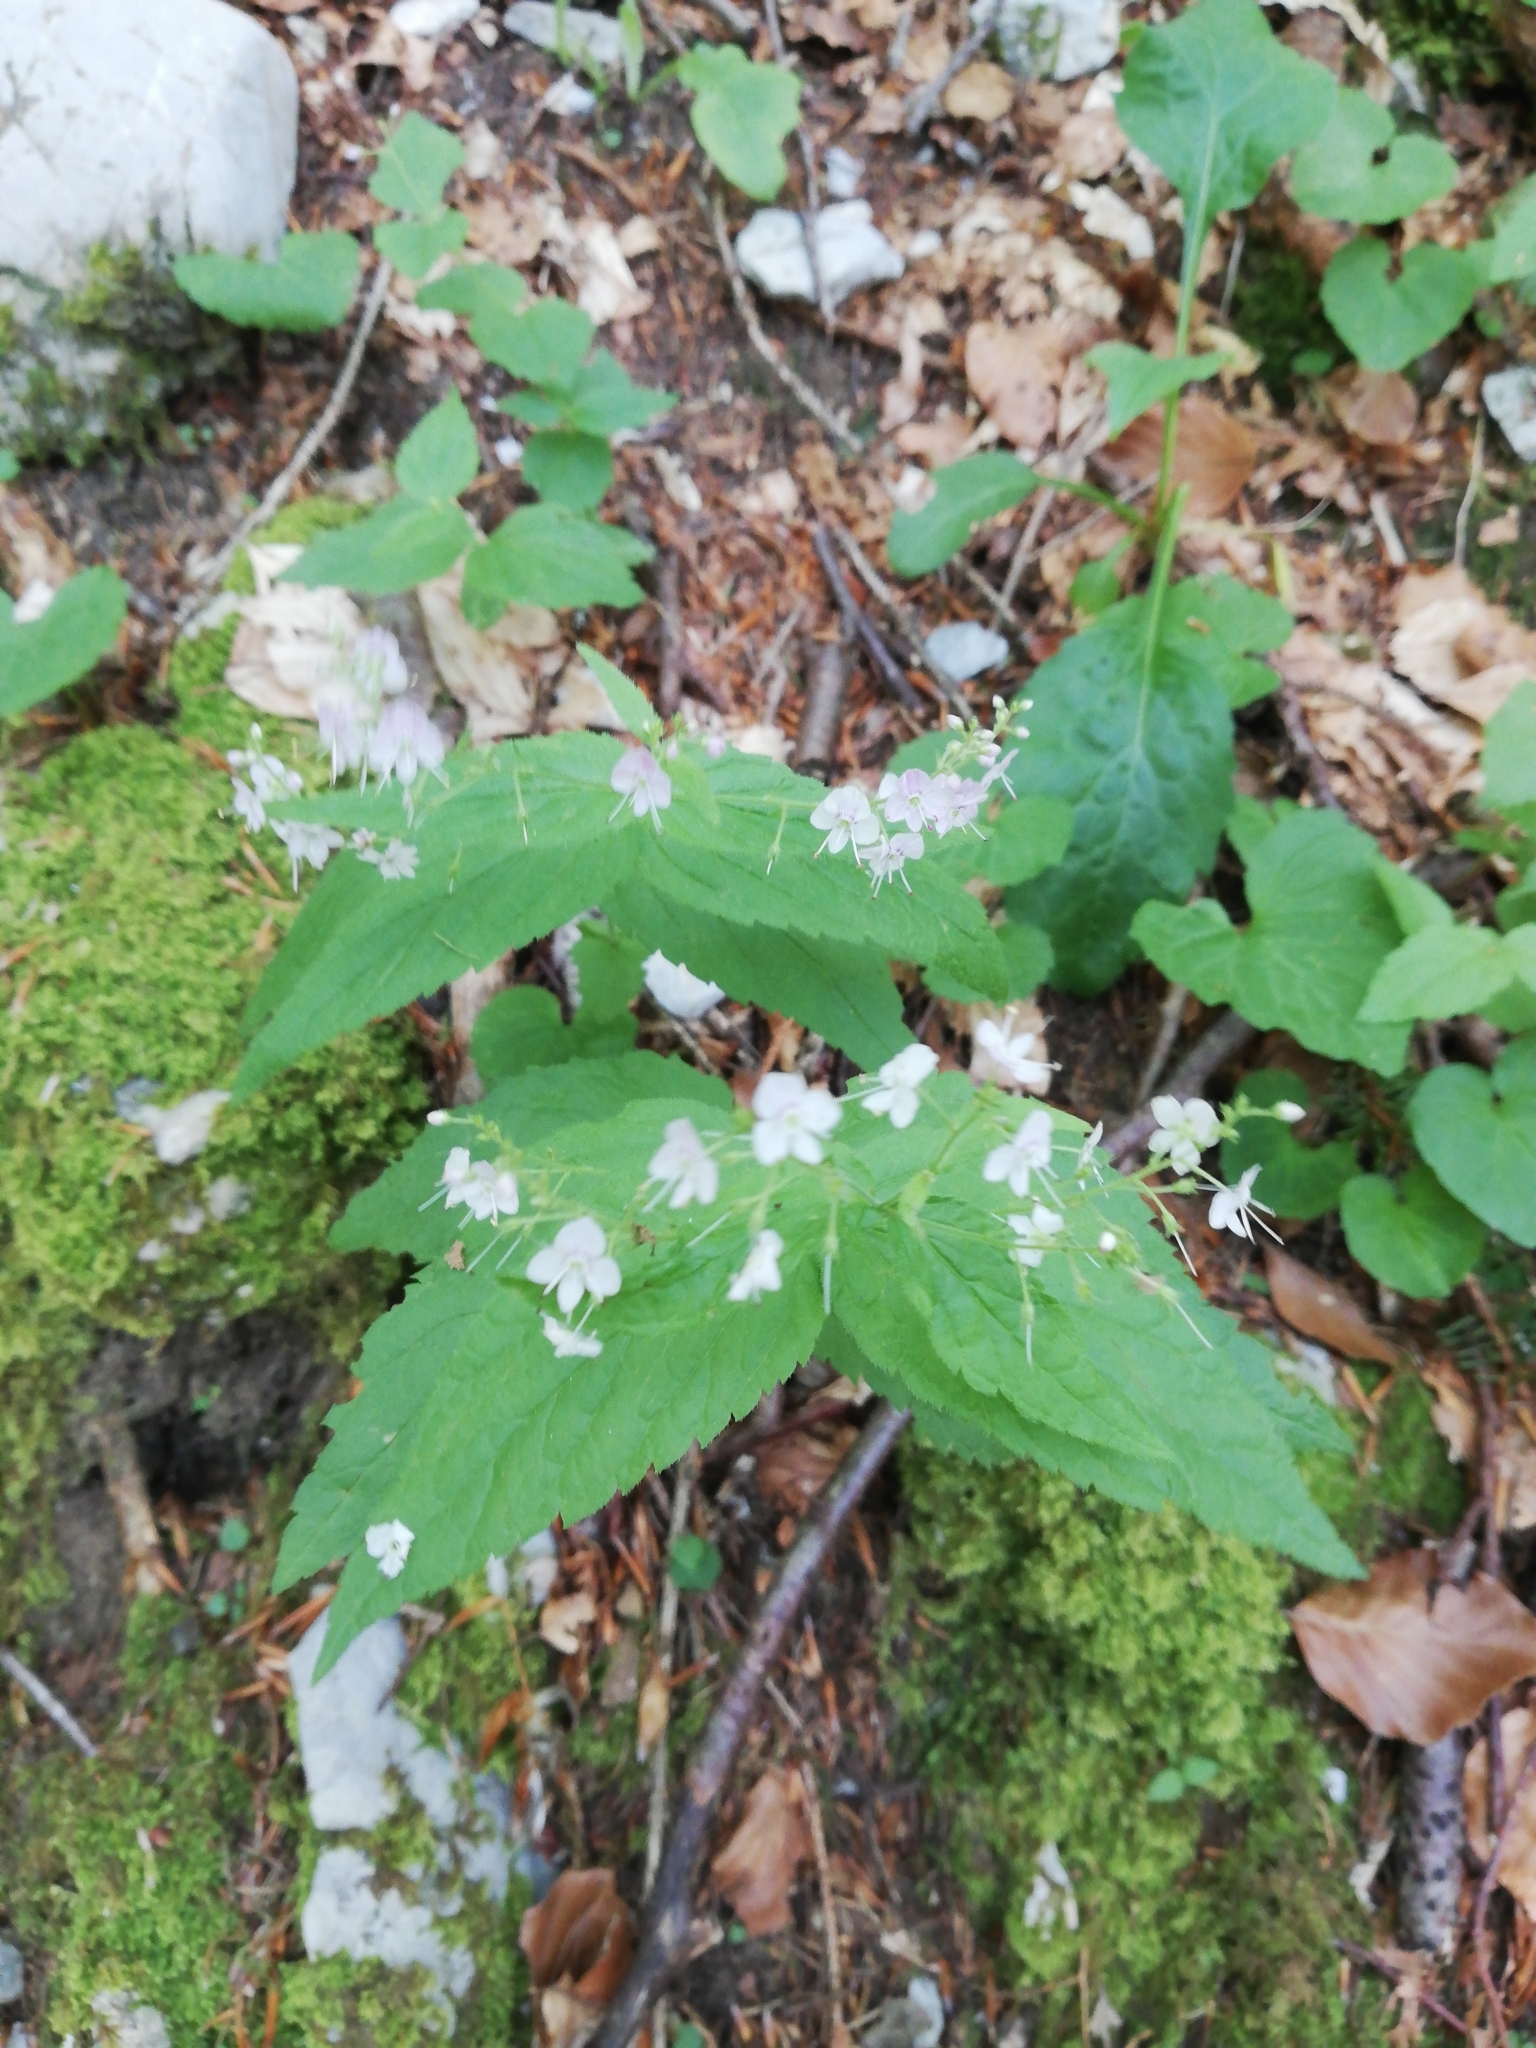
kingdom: Plantae
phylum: Tracheophyta
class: Magnoliopsida
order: Lamiales
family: Plantaginaceae
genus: Veronica
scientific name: Veronica urticifolia
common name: Nettle-leaf speedwell
